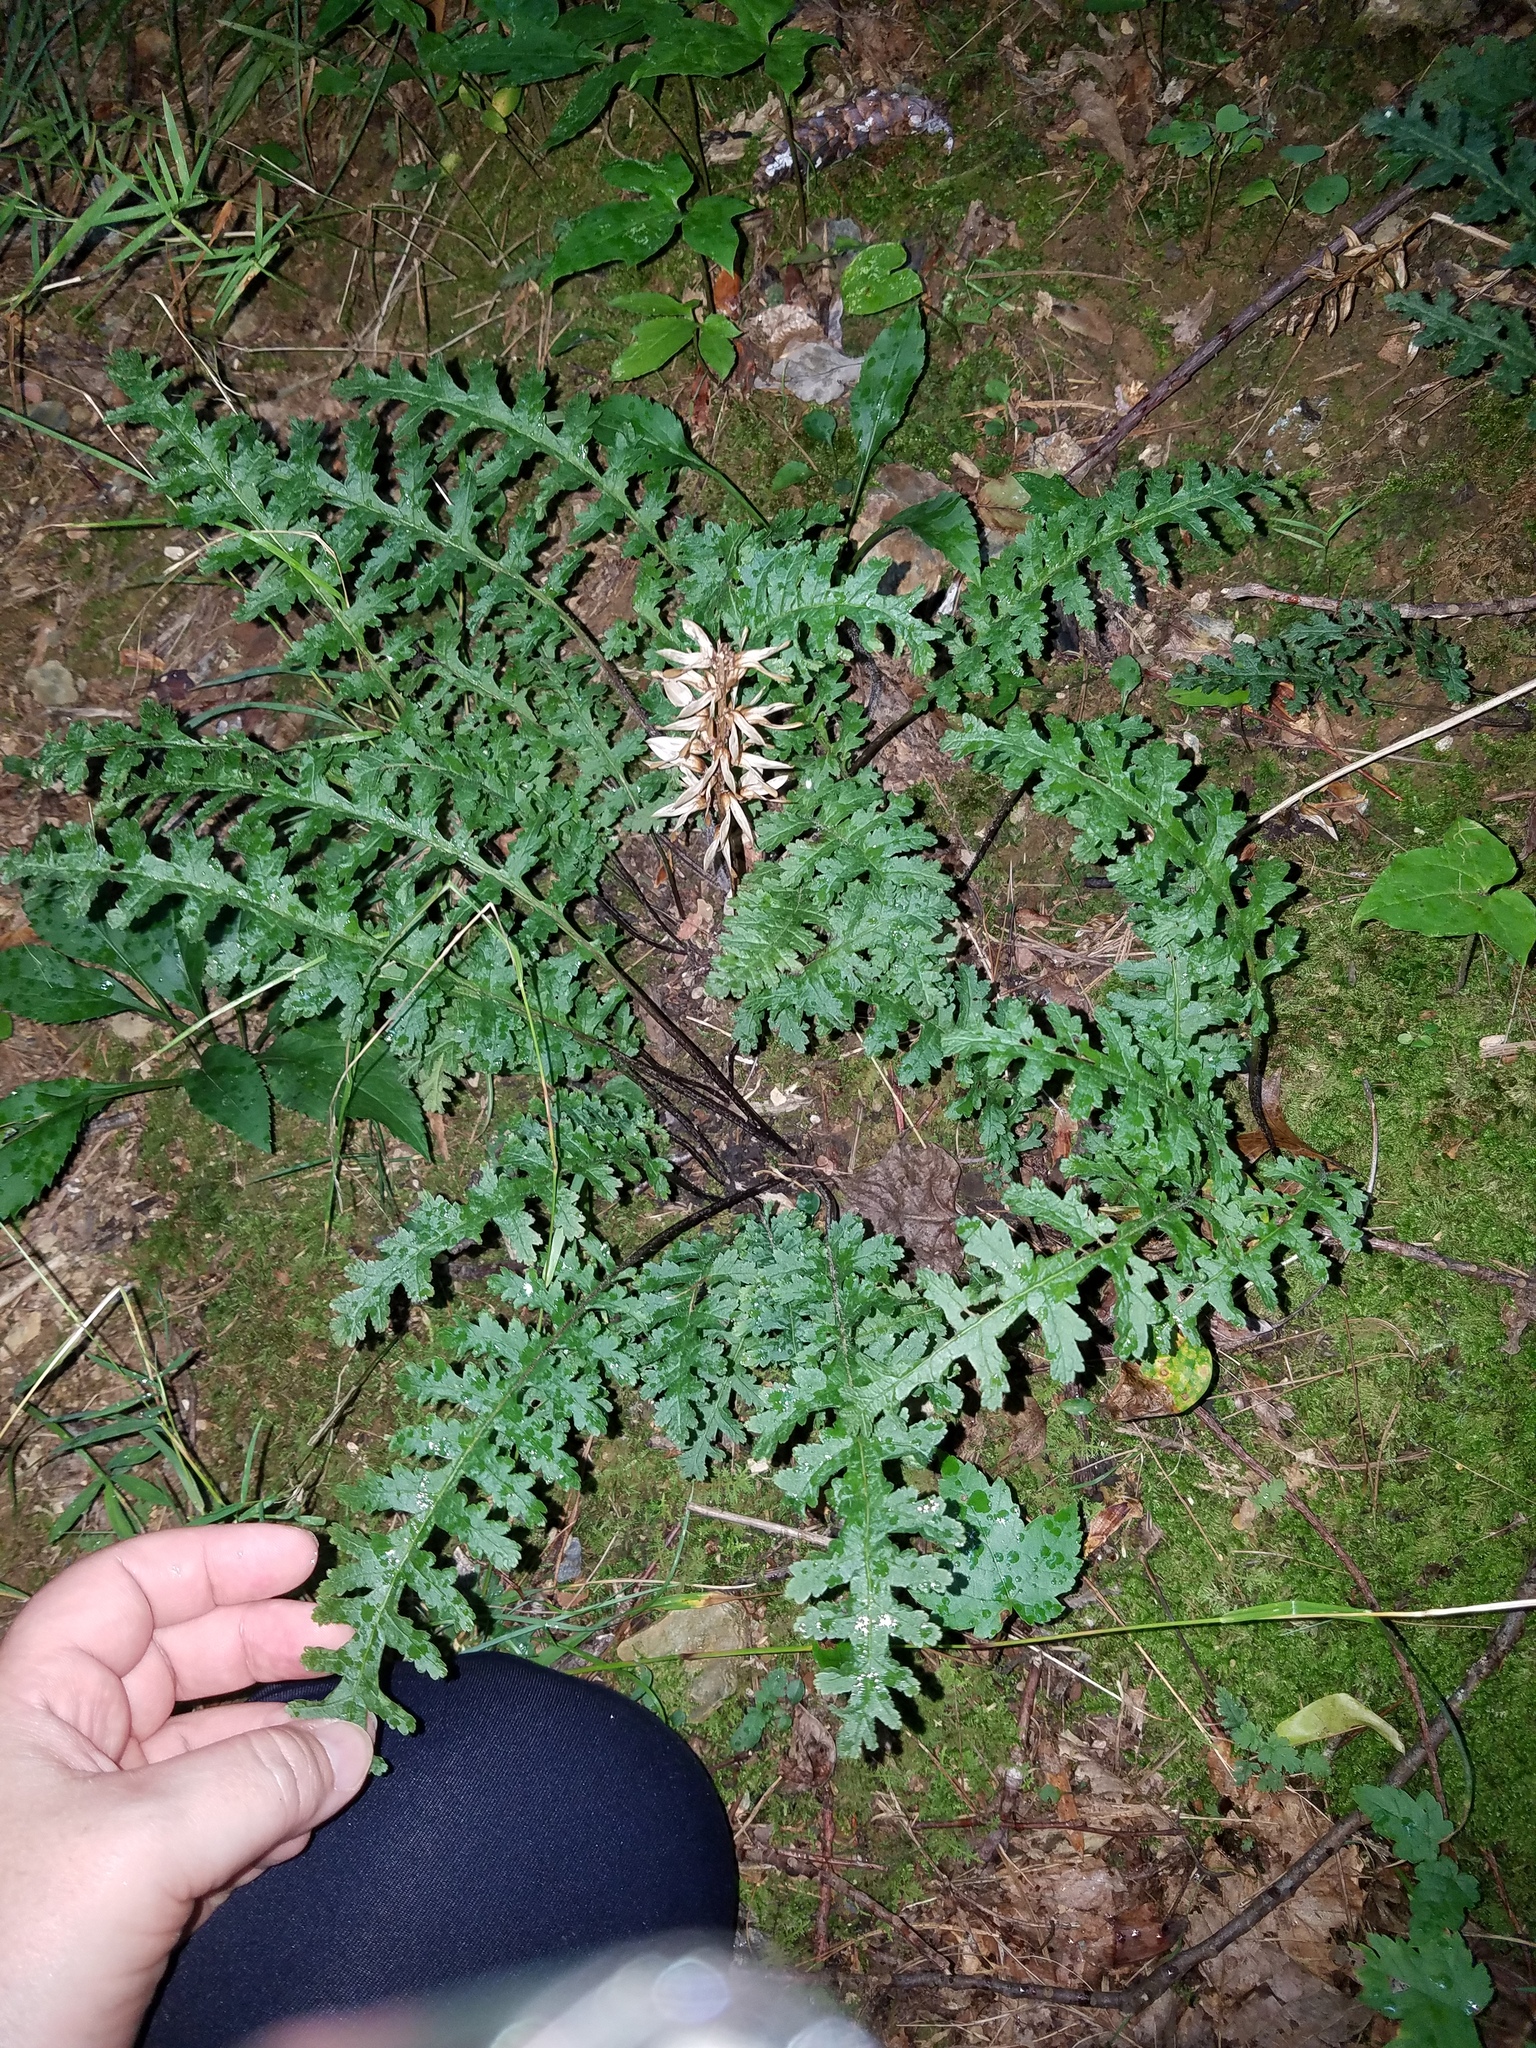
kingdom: Plantae
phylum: Tracheophyta
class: Magnoliopsida
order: Lamiales
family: Orobanchaceae
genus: Pedicularis
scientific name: Pedicularis canadensis
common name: Early lousewort
